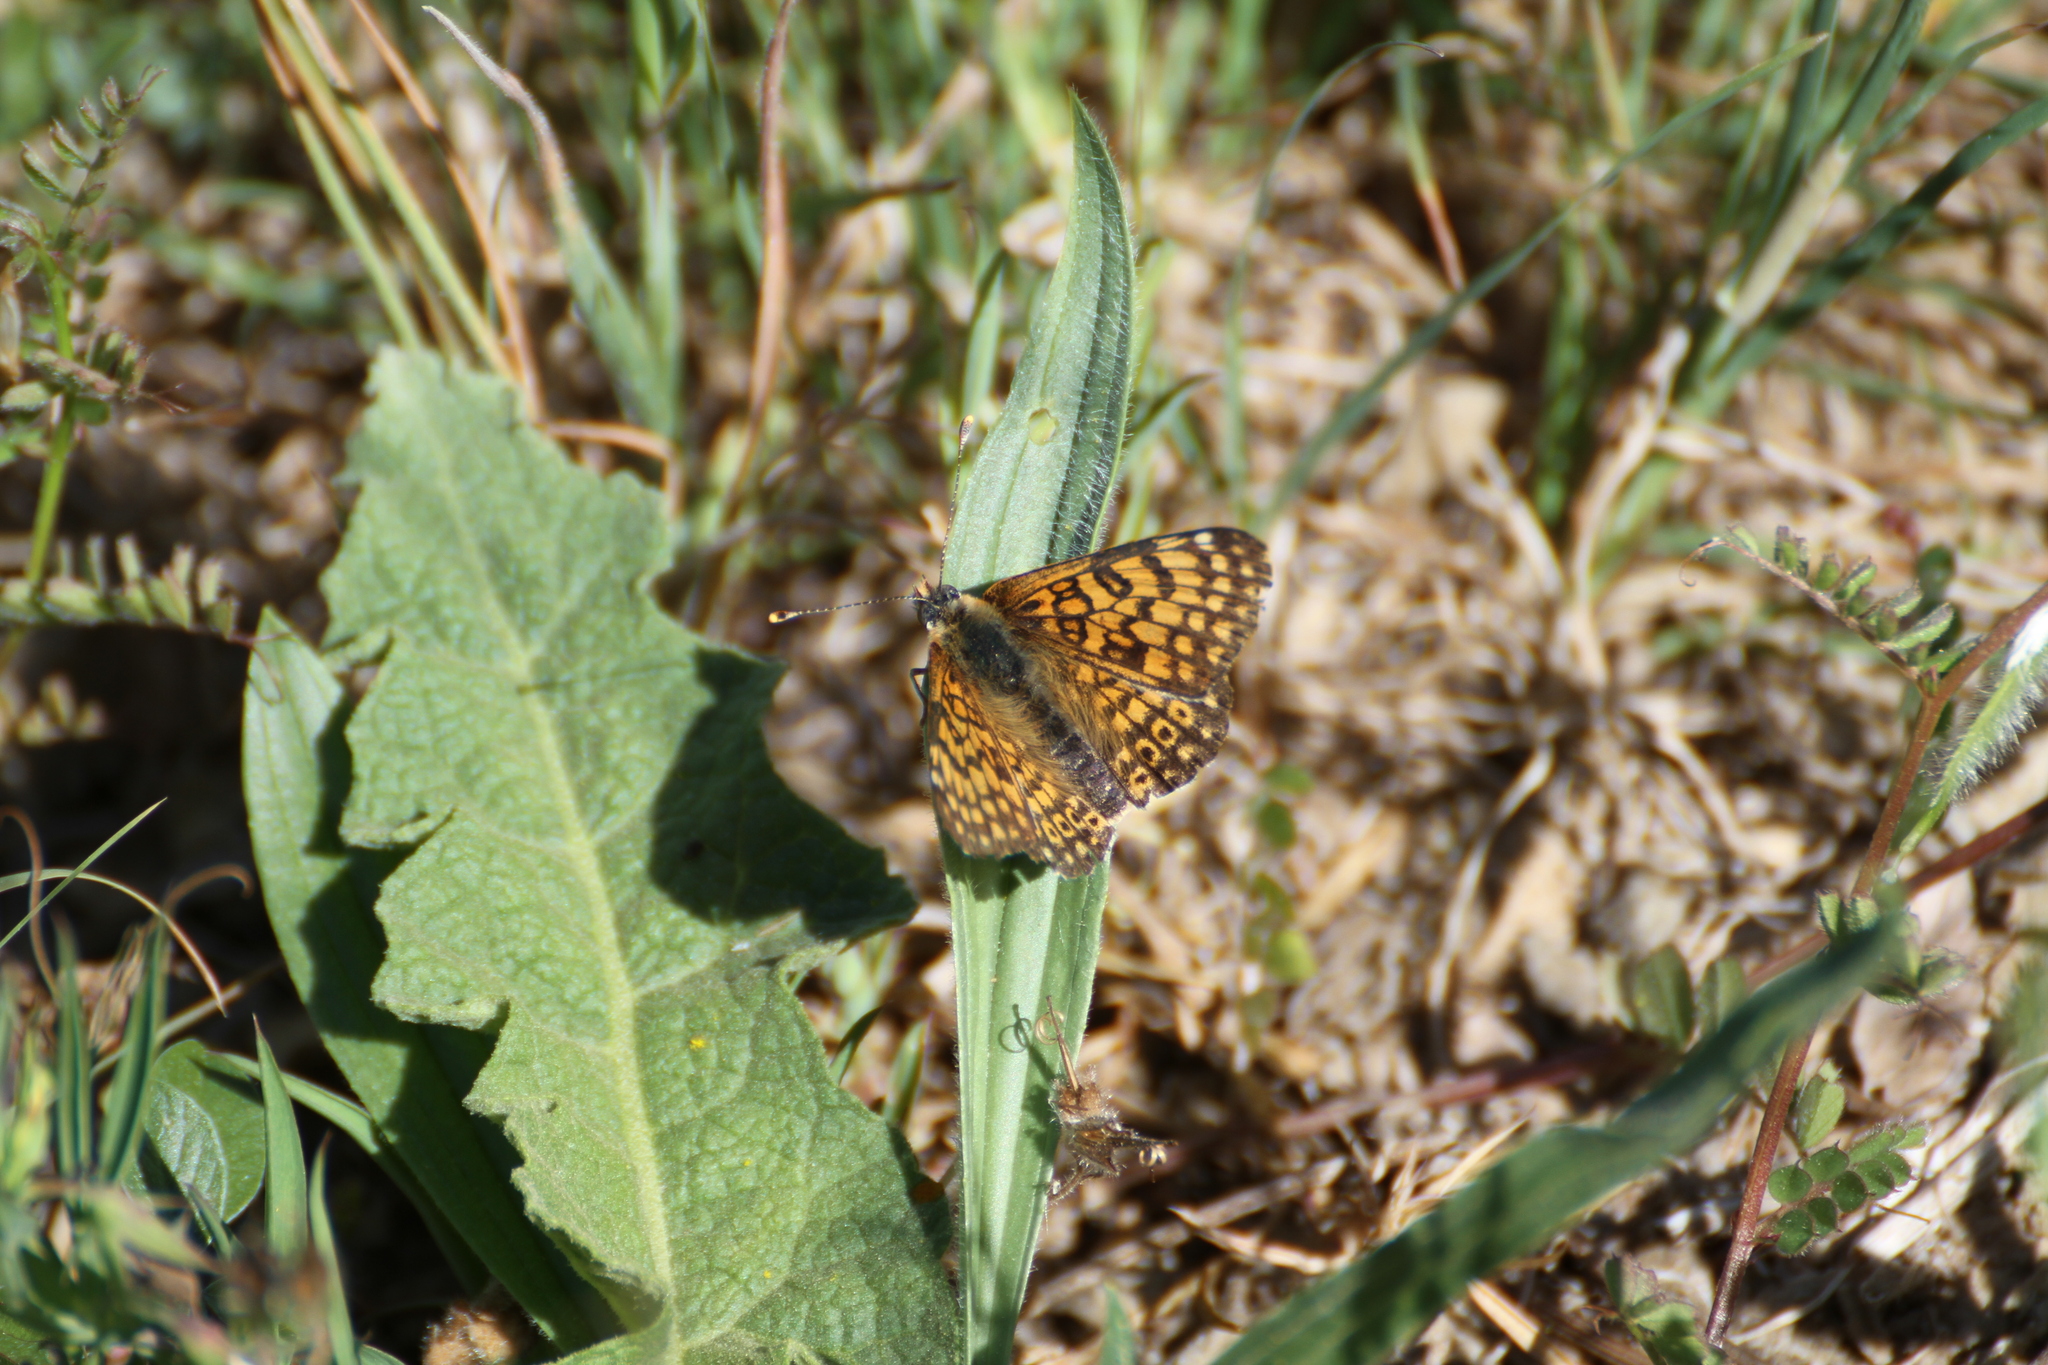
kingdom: Animalia
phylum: Arthropoda
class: Insecta
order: Lepidoptera
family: Nymphalidae
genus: Melitaea
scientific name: Melitaea cinxia
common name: Glanville fritillary
